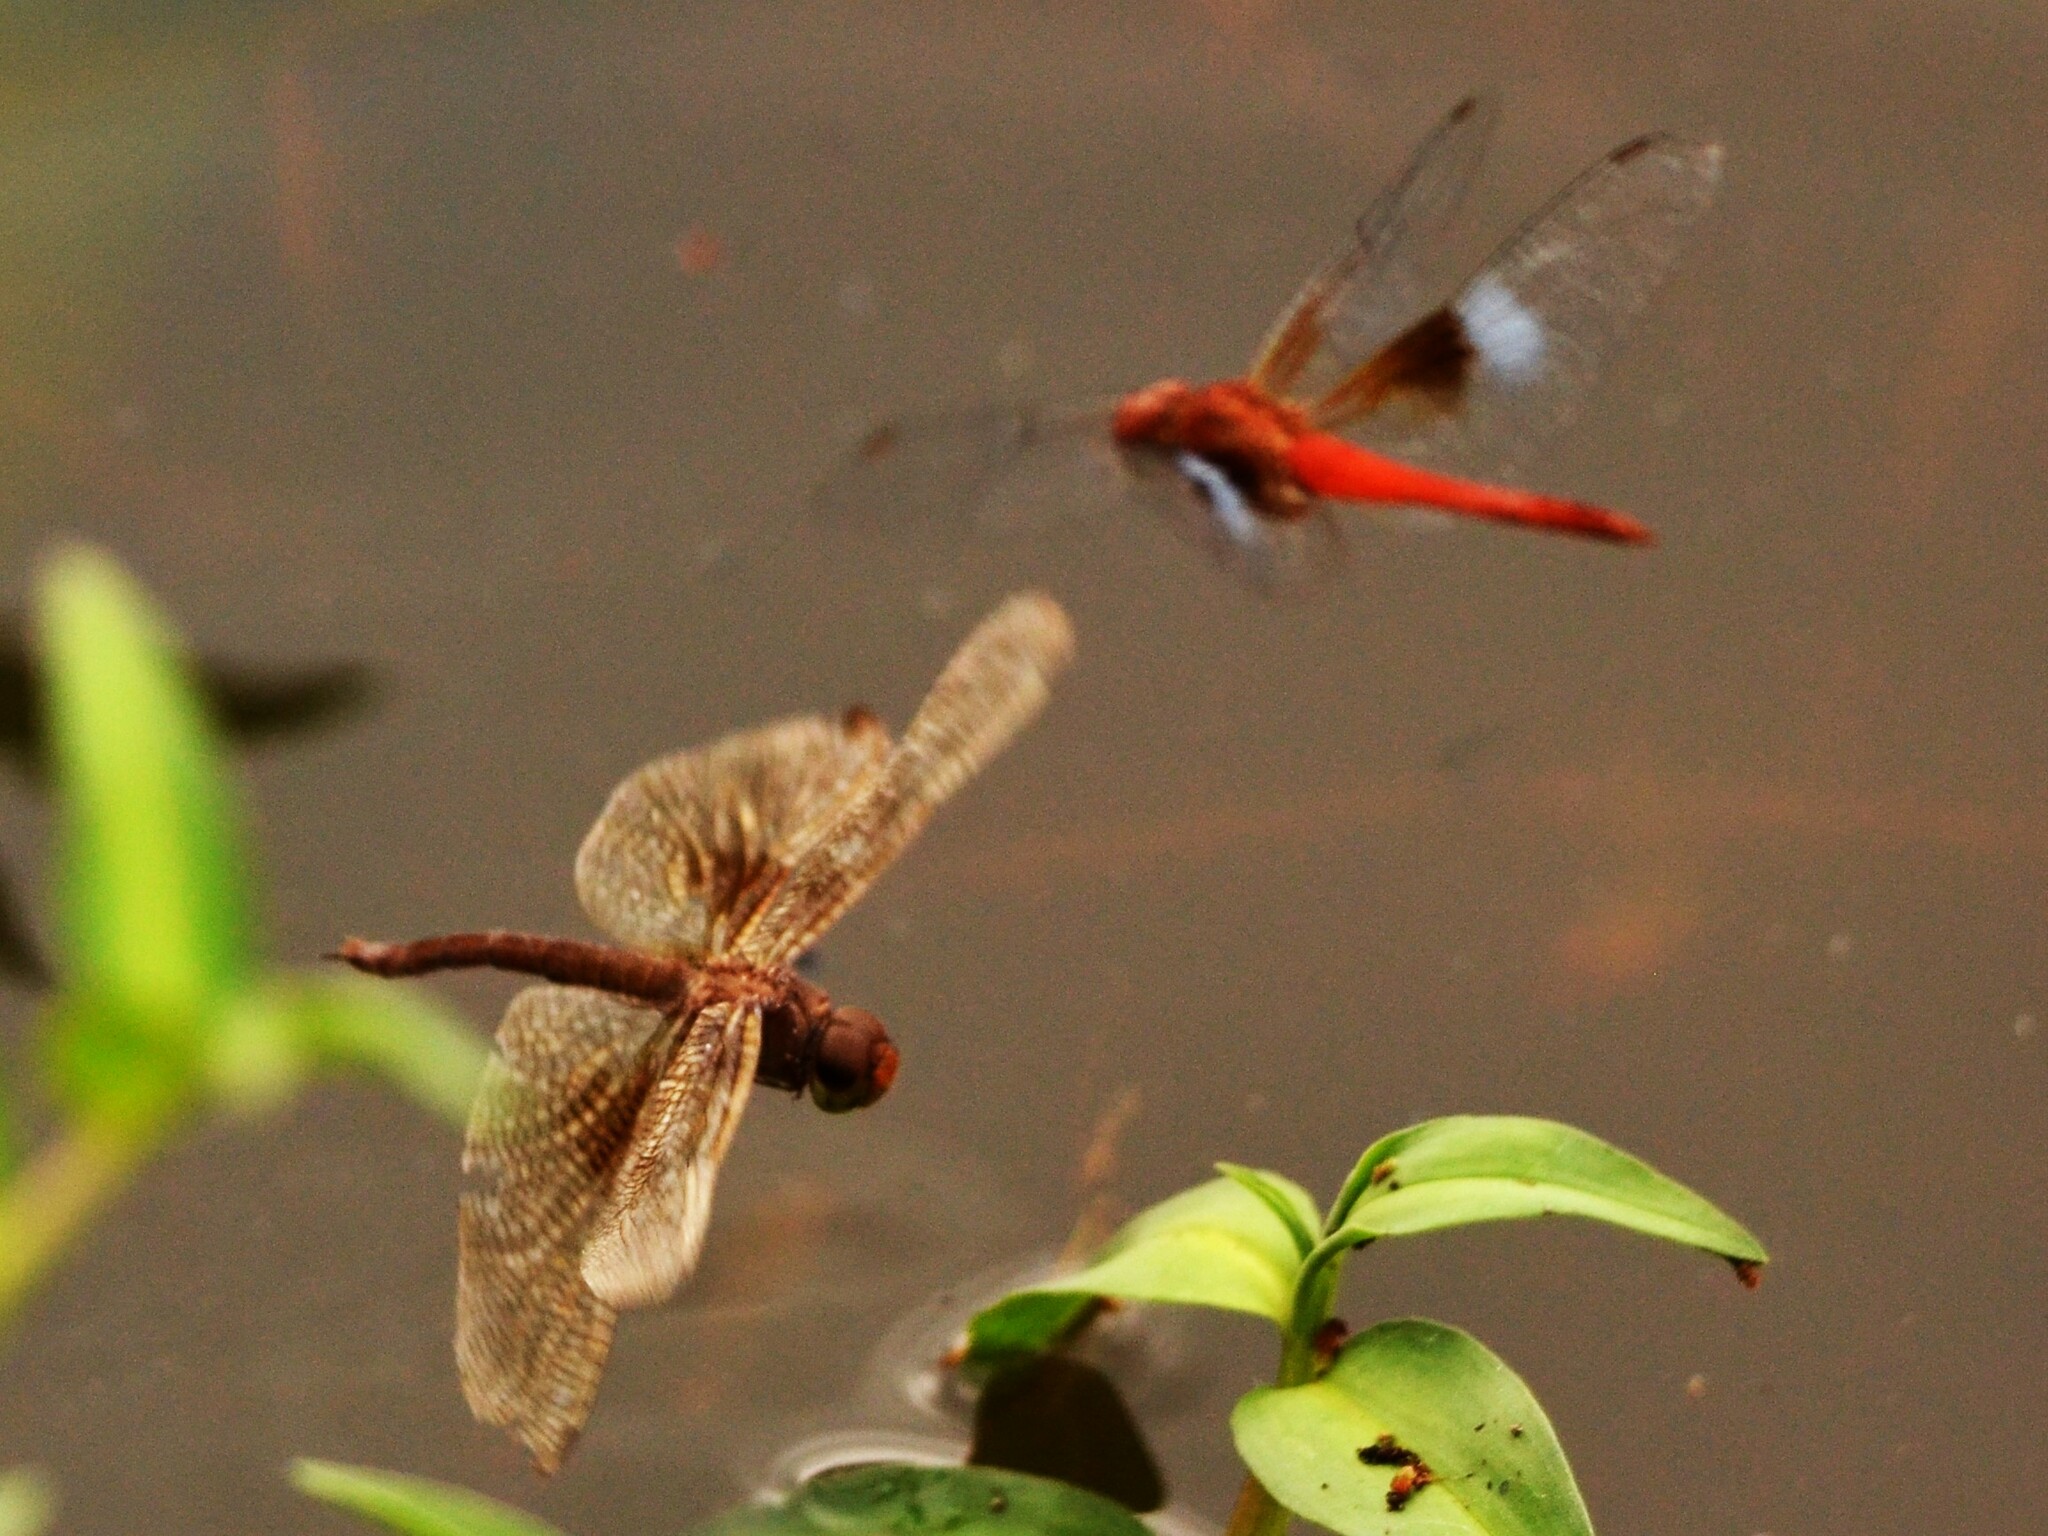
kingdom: Animalia
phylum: Arthropoda
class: Insecta
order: Odonata
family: Libellulidae
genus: Tholymis
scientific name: Tholymis tillarga
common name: Coral-tailed cloud wing
